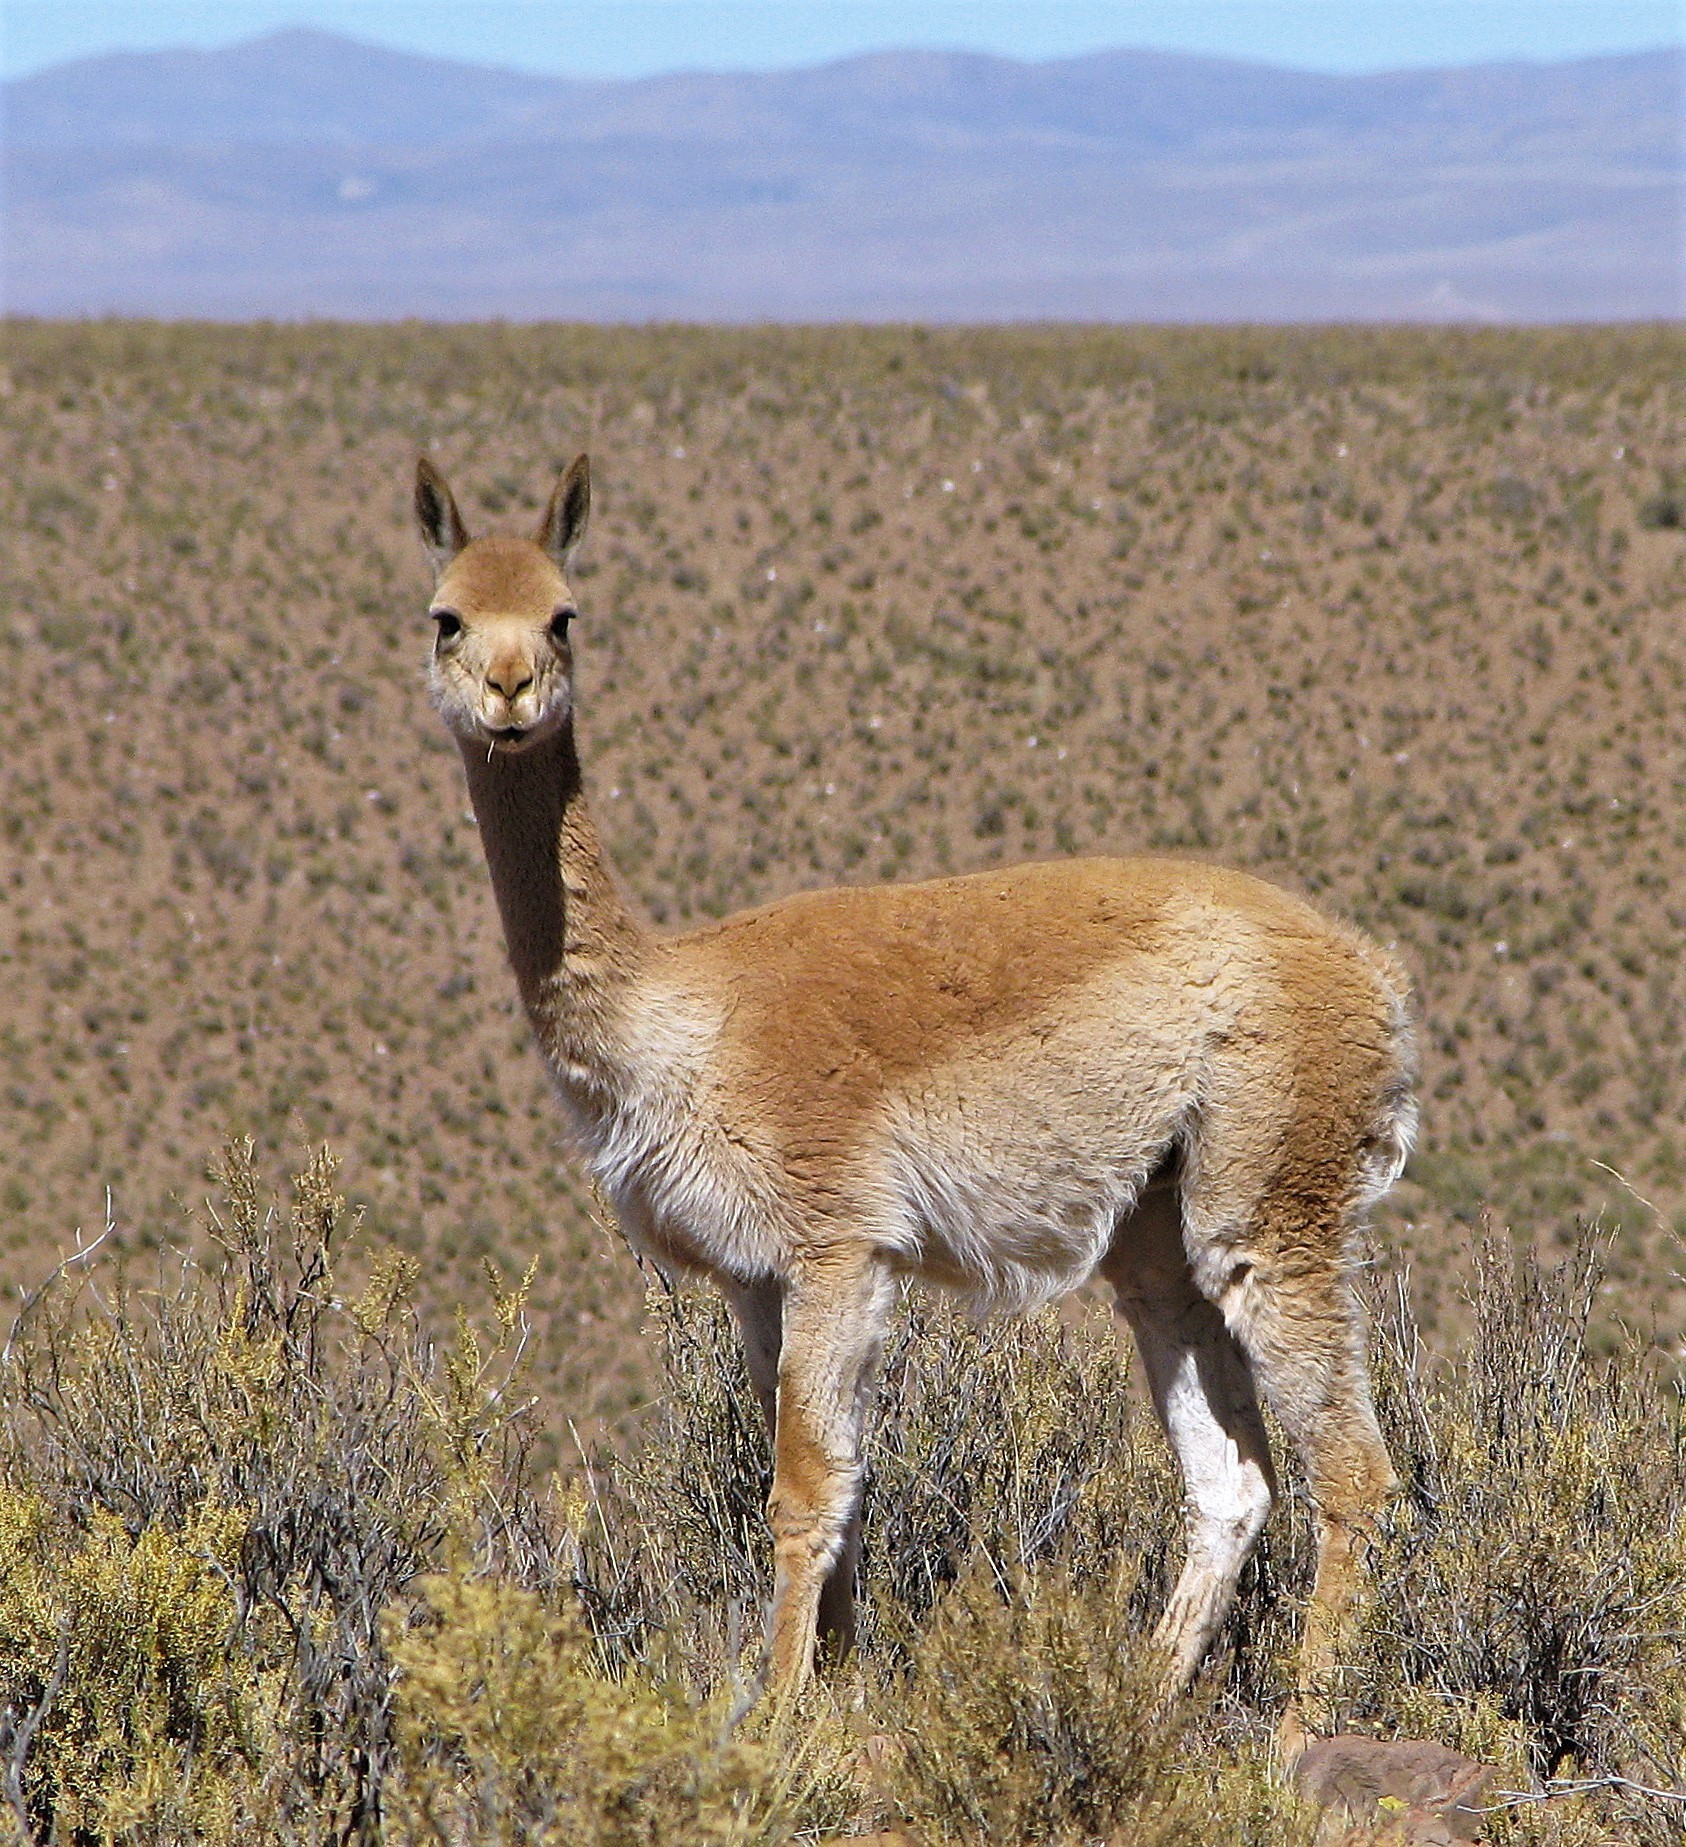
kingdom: Animalia
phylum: Chordata
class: Mammalia
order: Artiodactyla
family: Camelidae
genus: Vicugna
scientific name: Vicugna vicugna
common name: Vicugna
